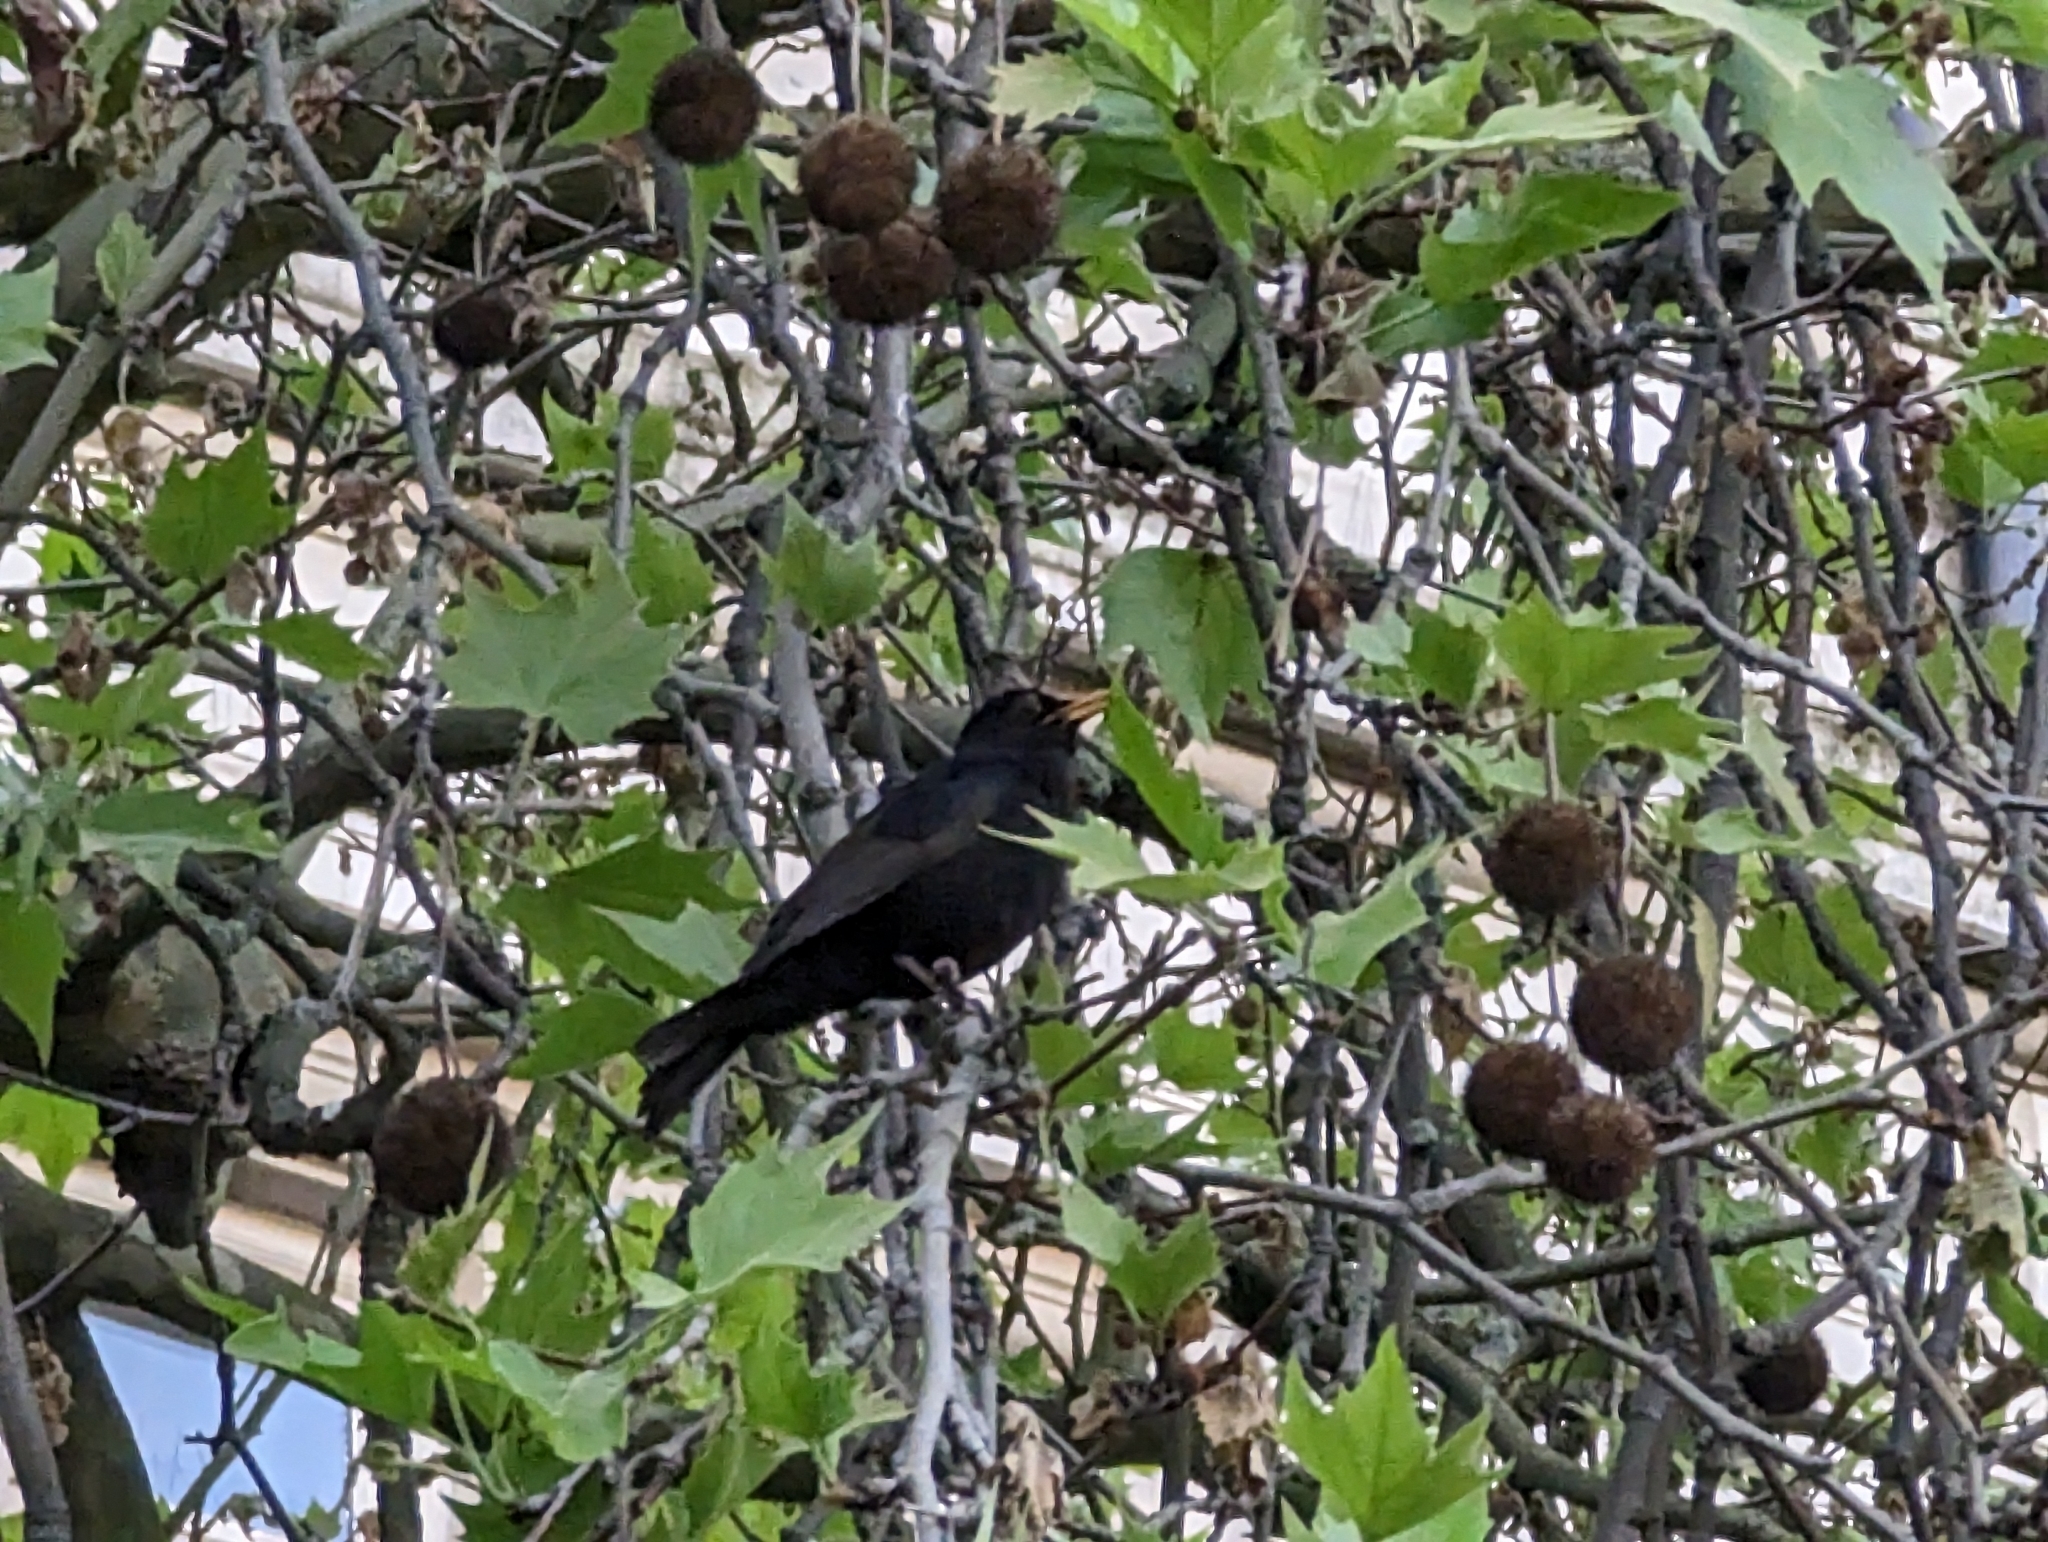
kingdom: Animalia
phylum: Chordata
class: Aves
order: Passeriformes
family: Turdidae
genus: Turdus
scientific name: Turdus merula
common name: Common blackbird
